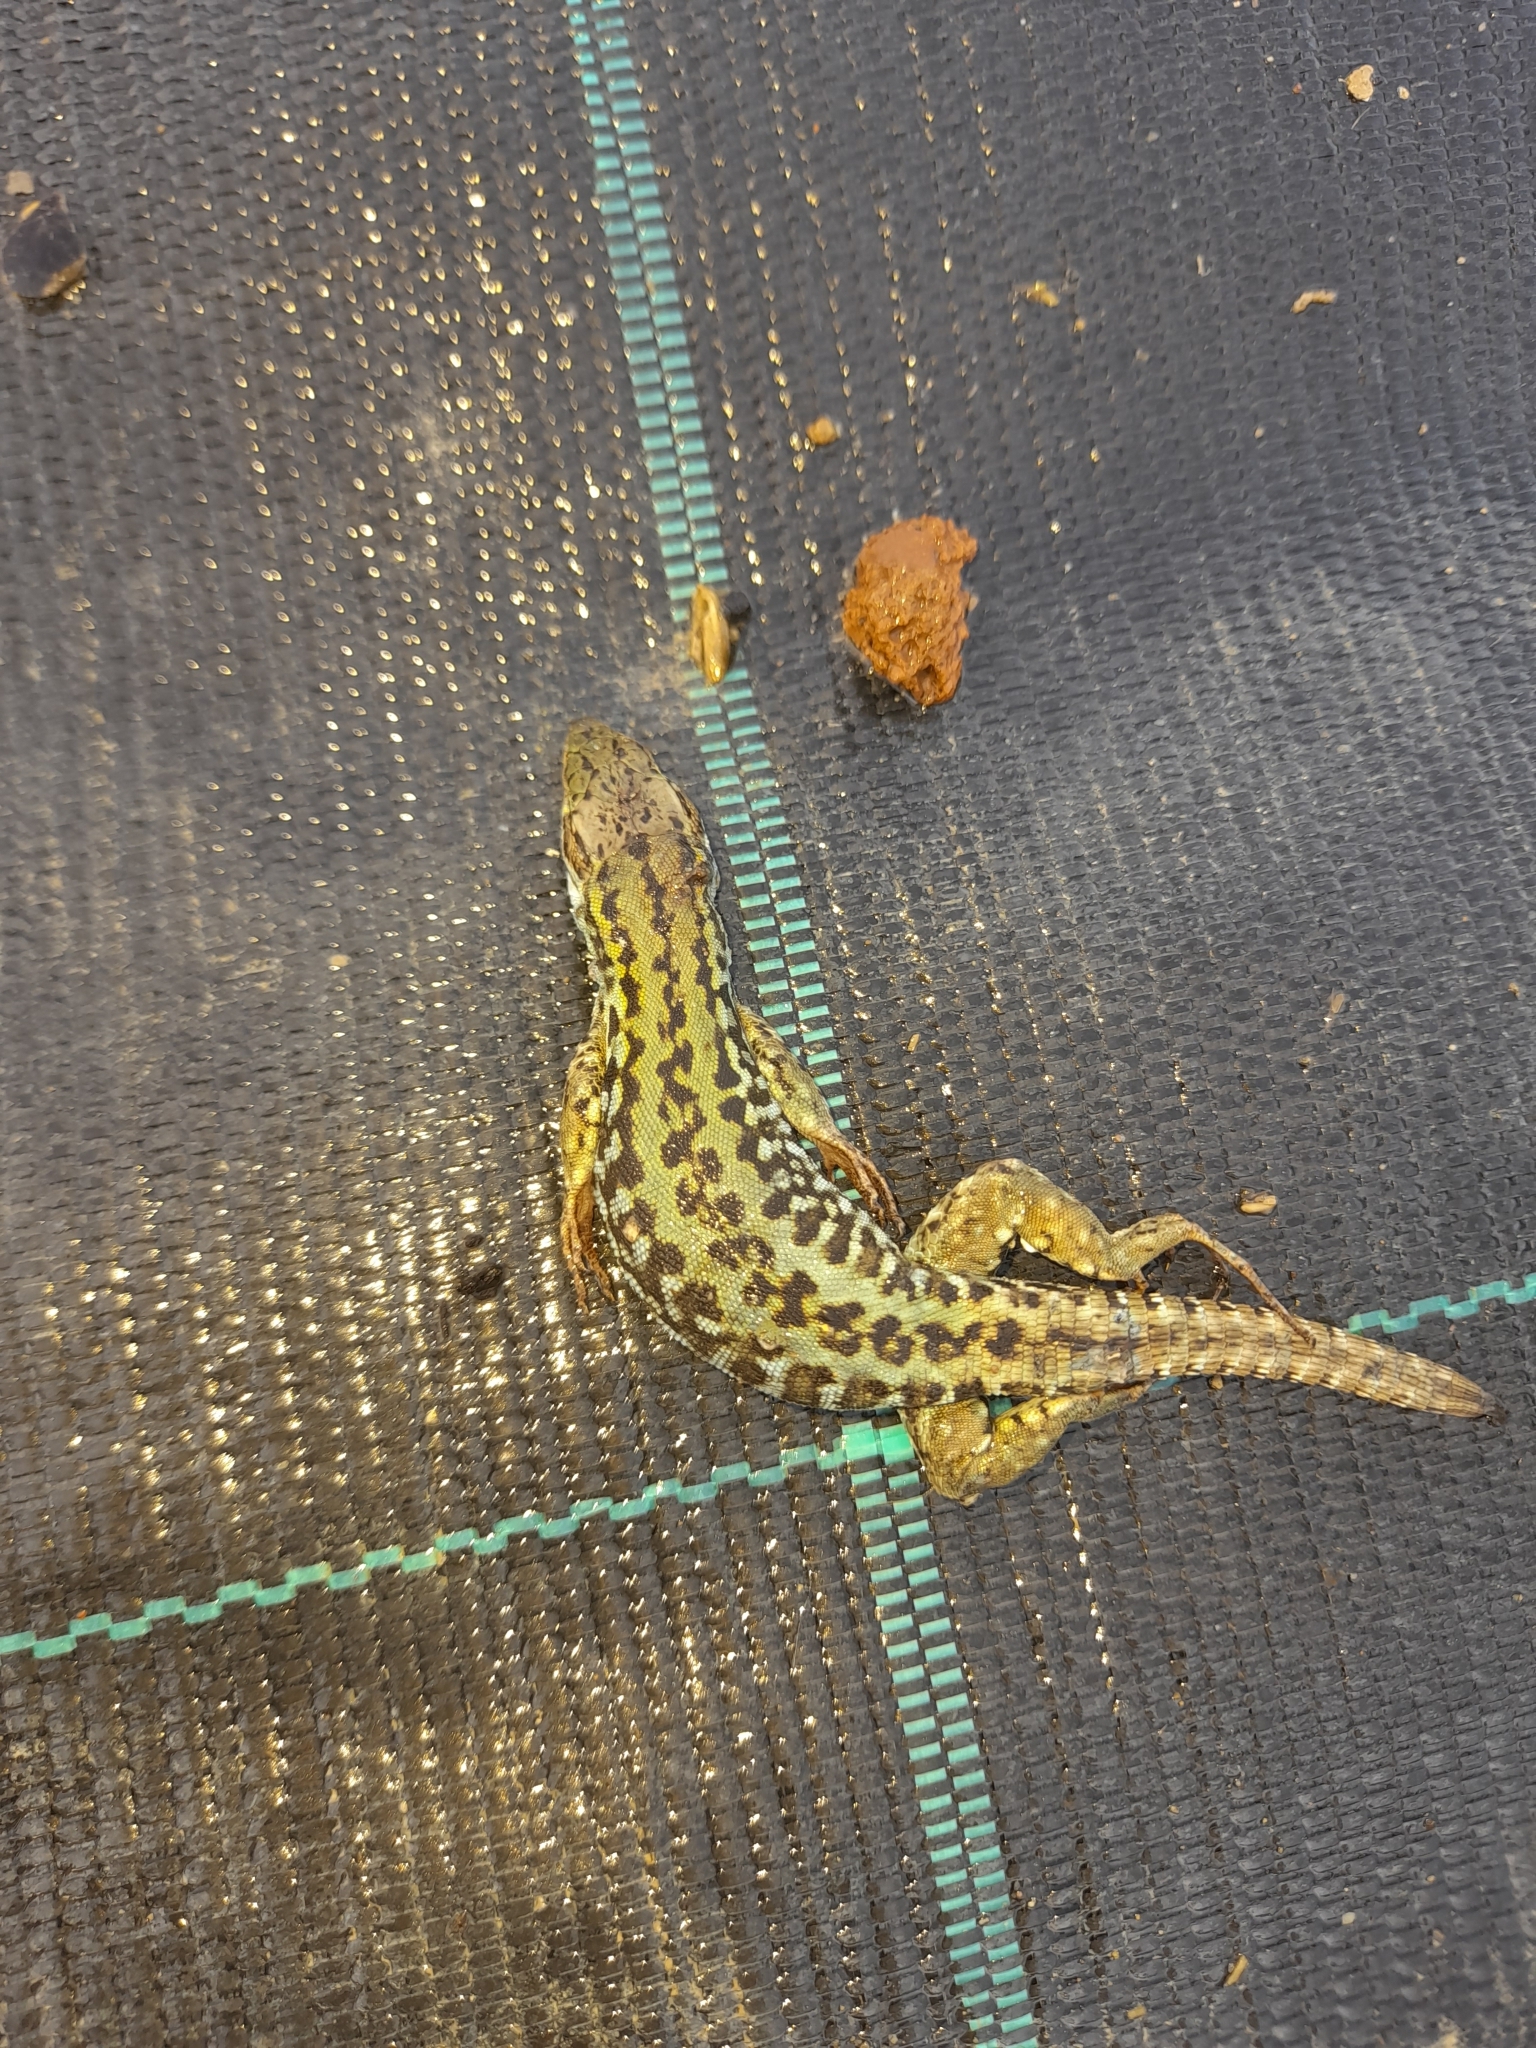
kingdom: Animalia
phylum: Chordata
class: Squamata
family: Lacertidae
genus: Podarcis
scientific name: Podarcis siculus
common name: Italian wall lizard
